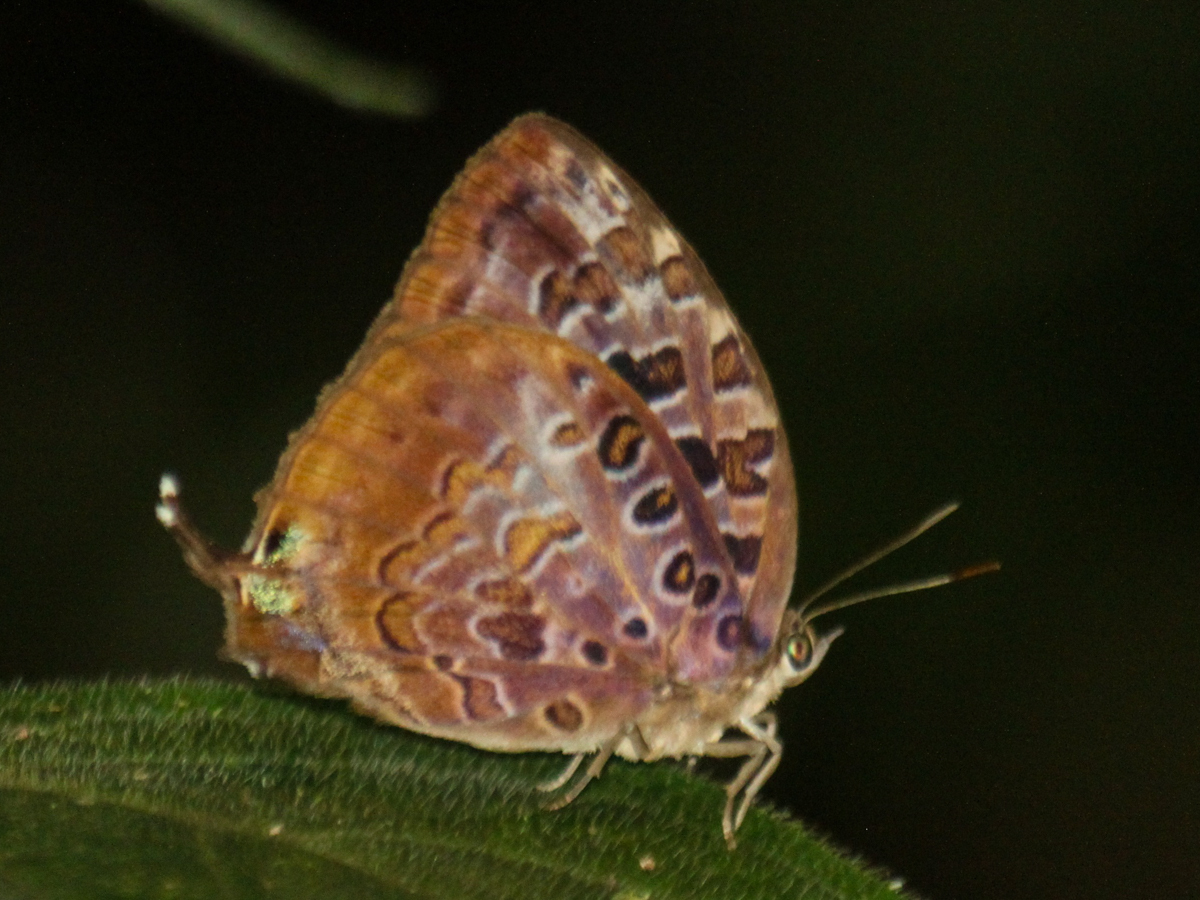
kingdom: Animalia
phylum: Arthropoda
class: Insecta
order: Lepidoptera
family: Lycaenidae
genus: Arhopala
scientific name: Arhopala anthelus
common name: Bushblue
